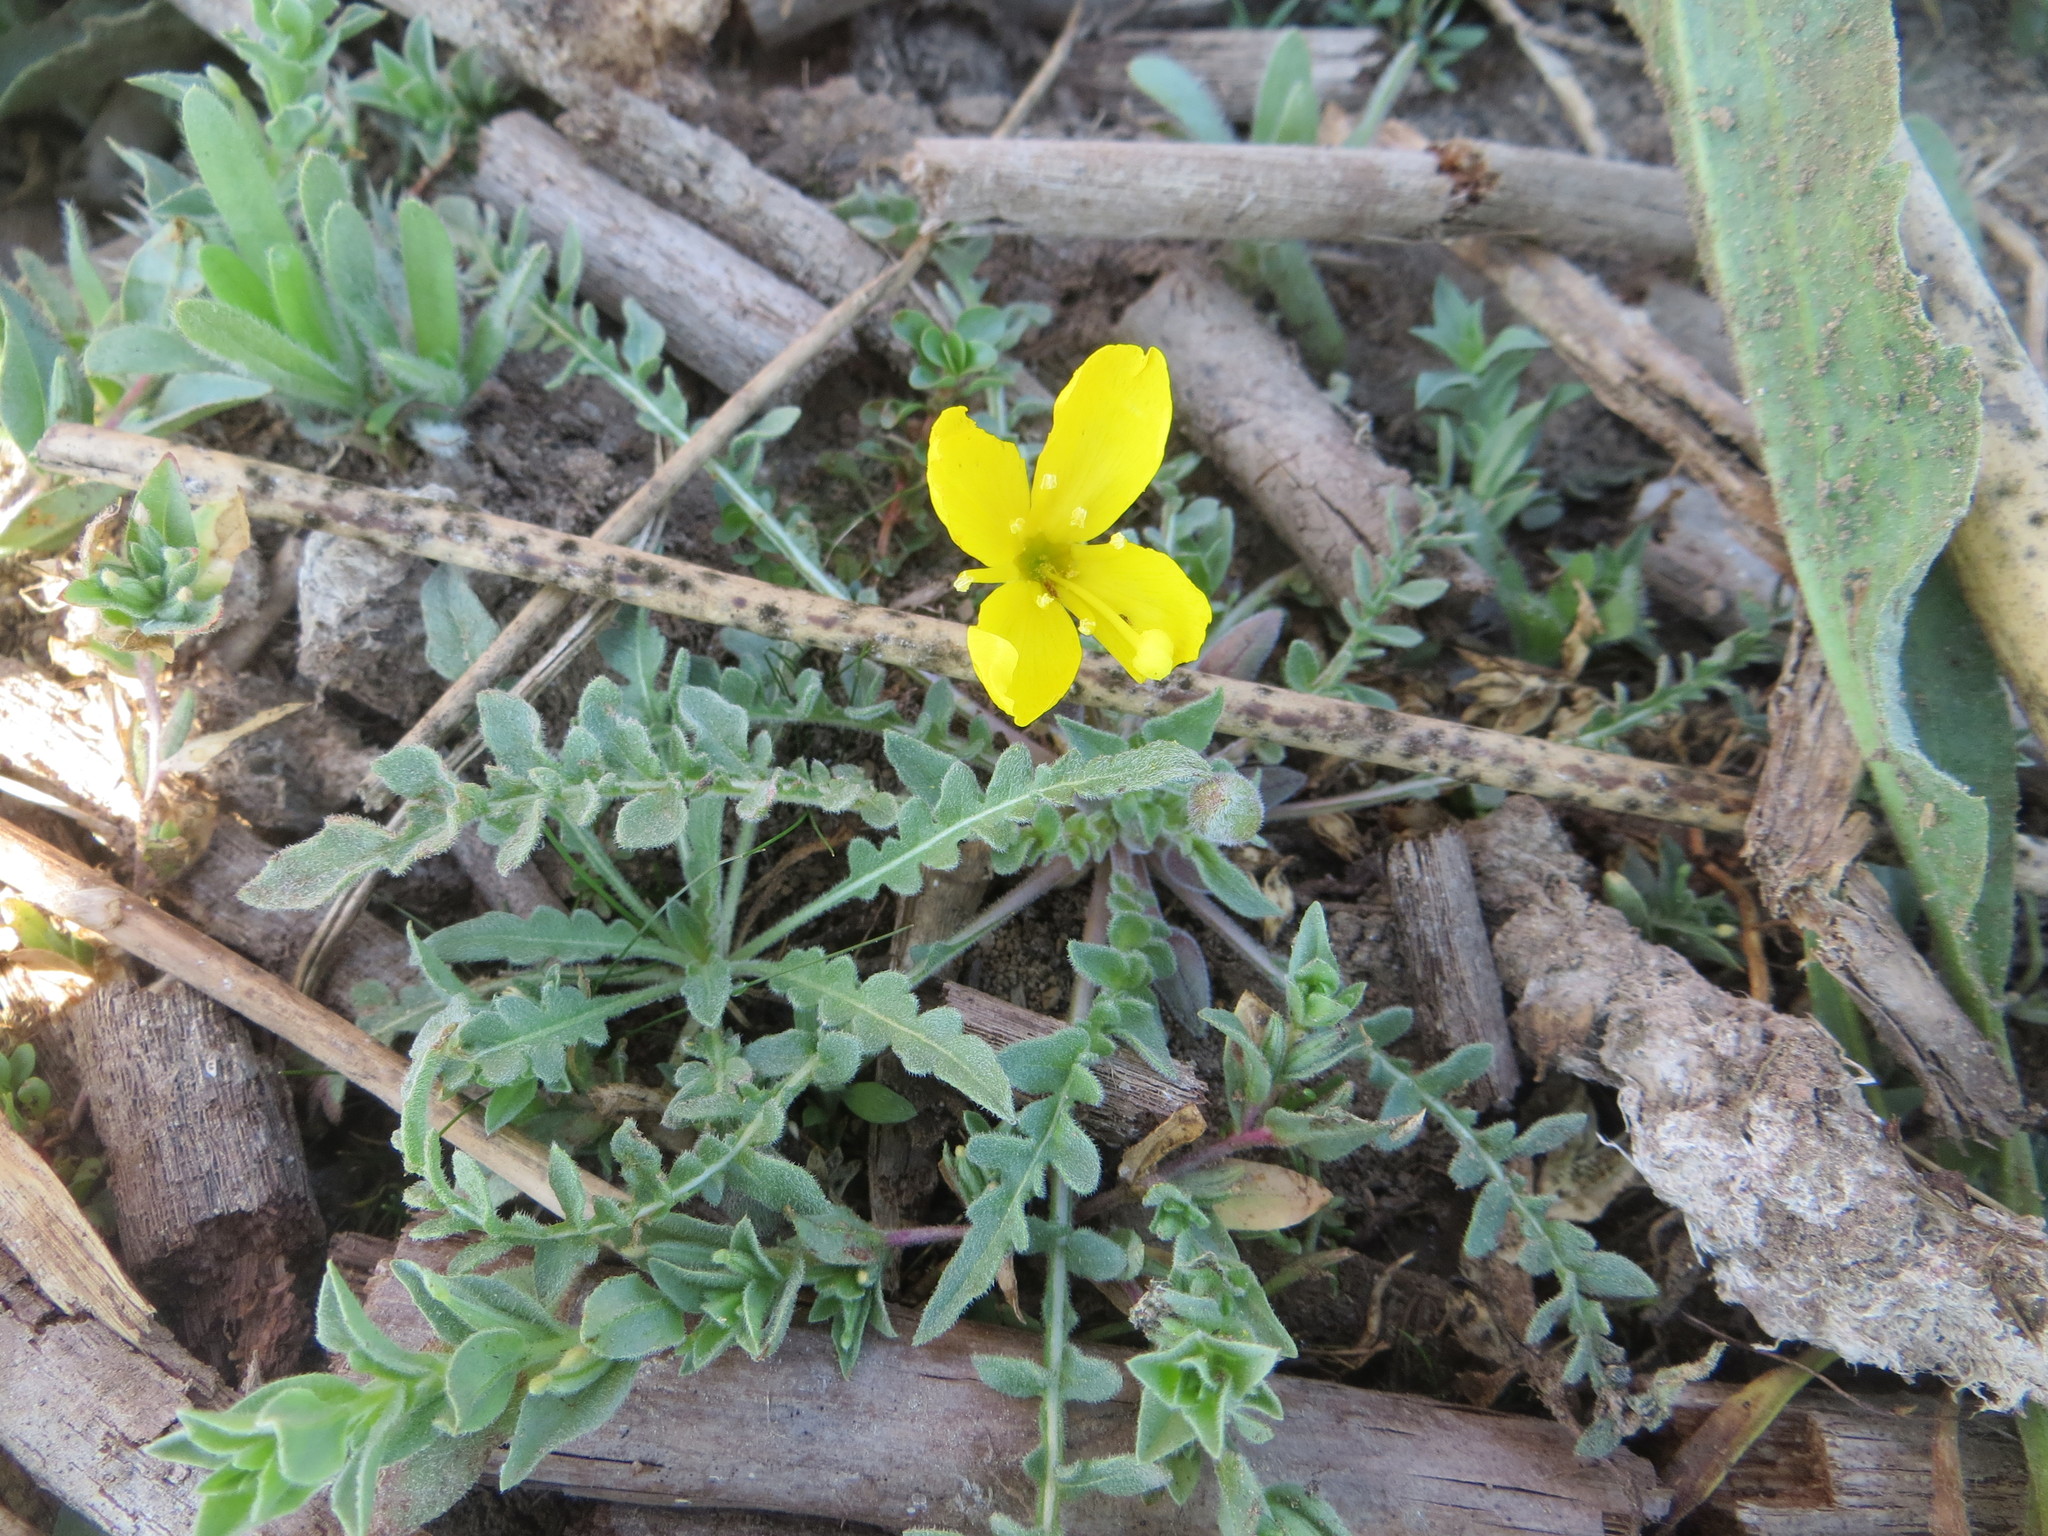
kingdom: Plantae
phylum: Tracheophyta
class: Magnoliopsida
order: Myrtales
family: Onagraceae
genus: Taraxia
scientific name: Taraxia tanacetifolia
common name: Tansyleaf evening primrose
